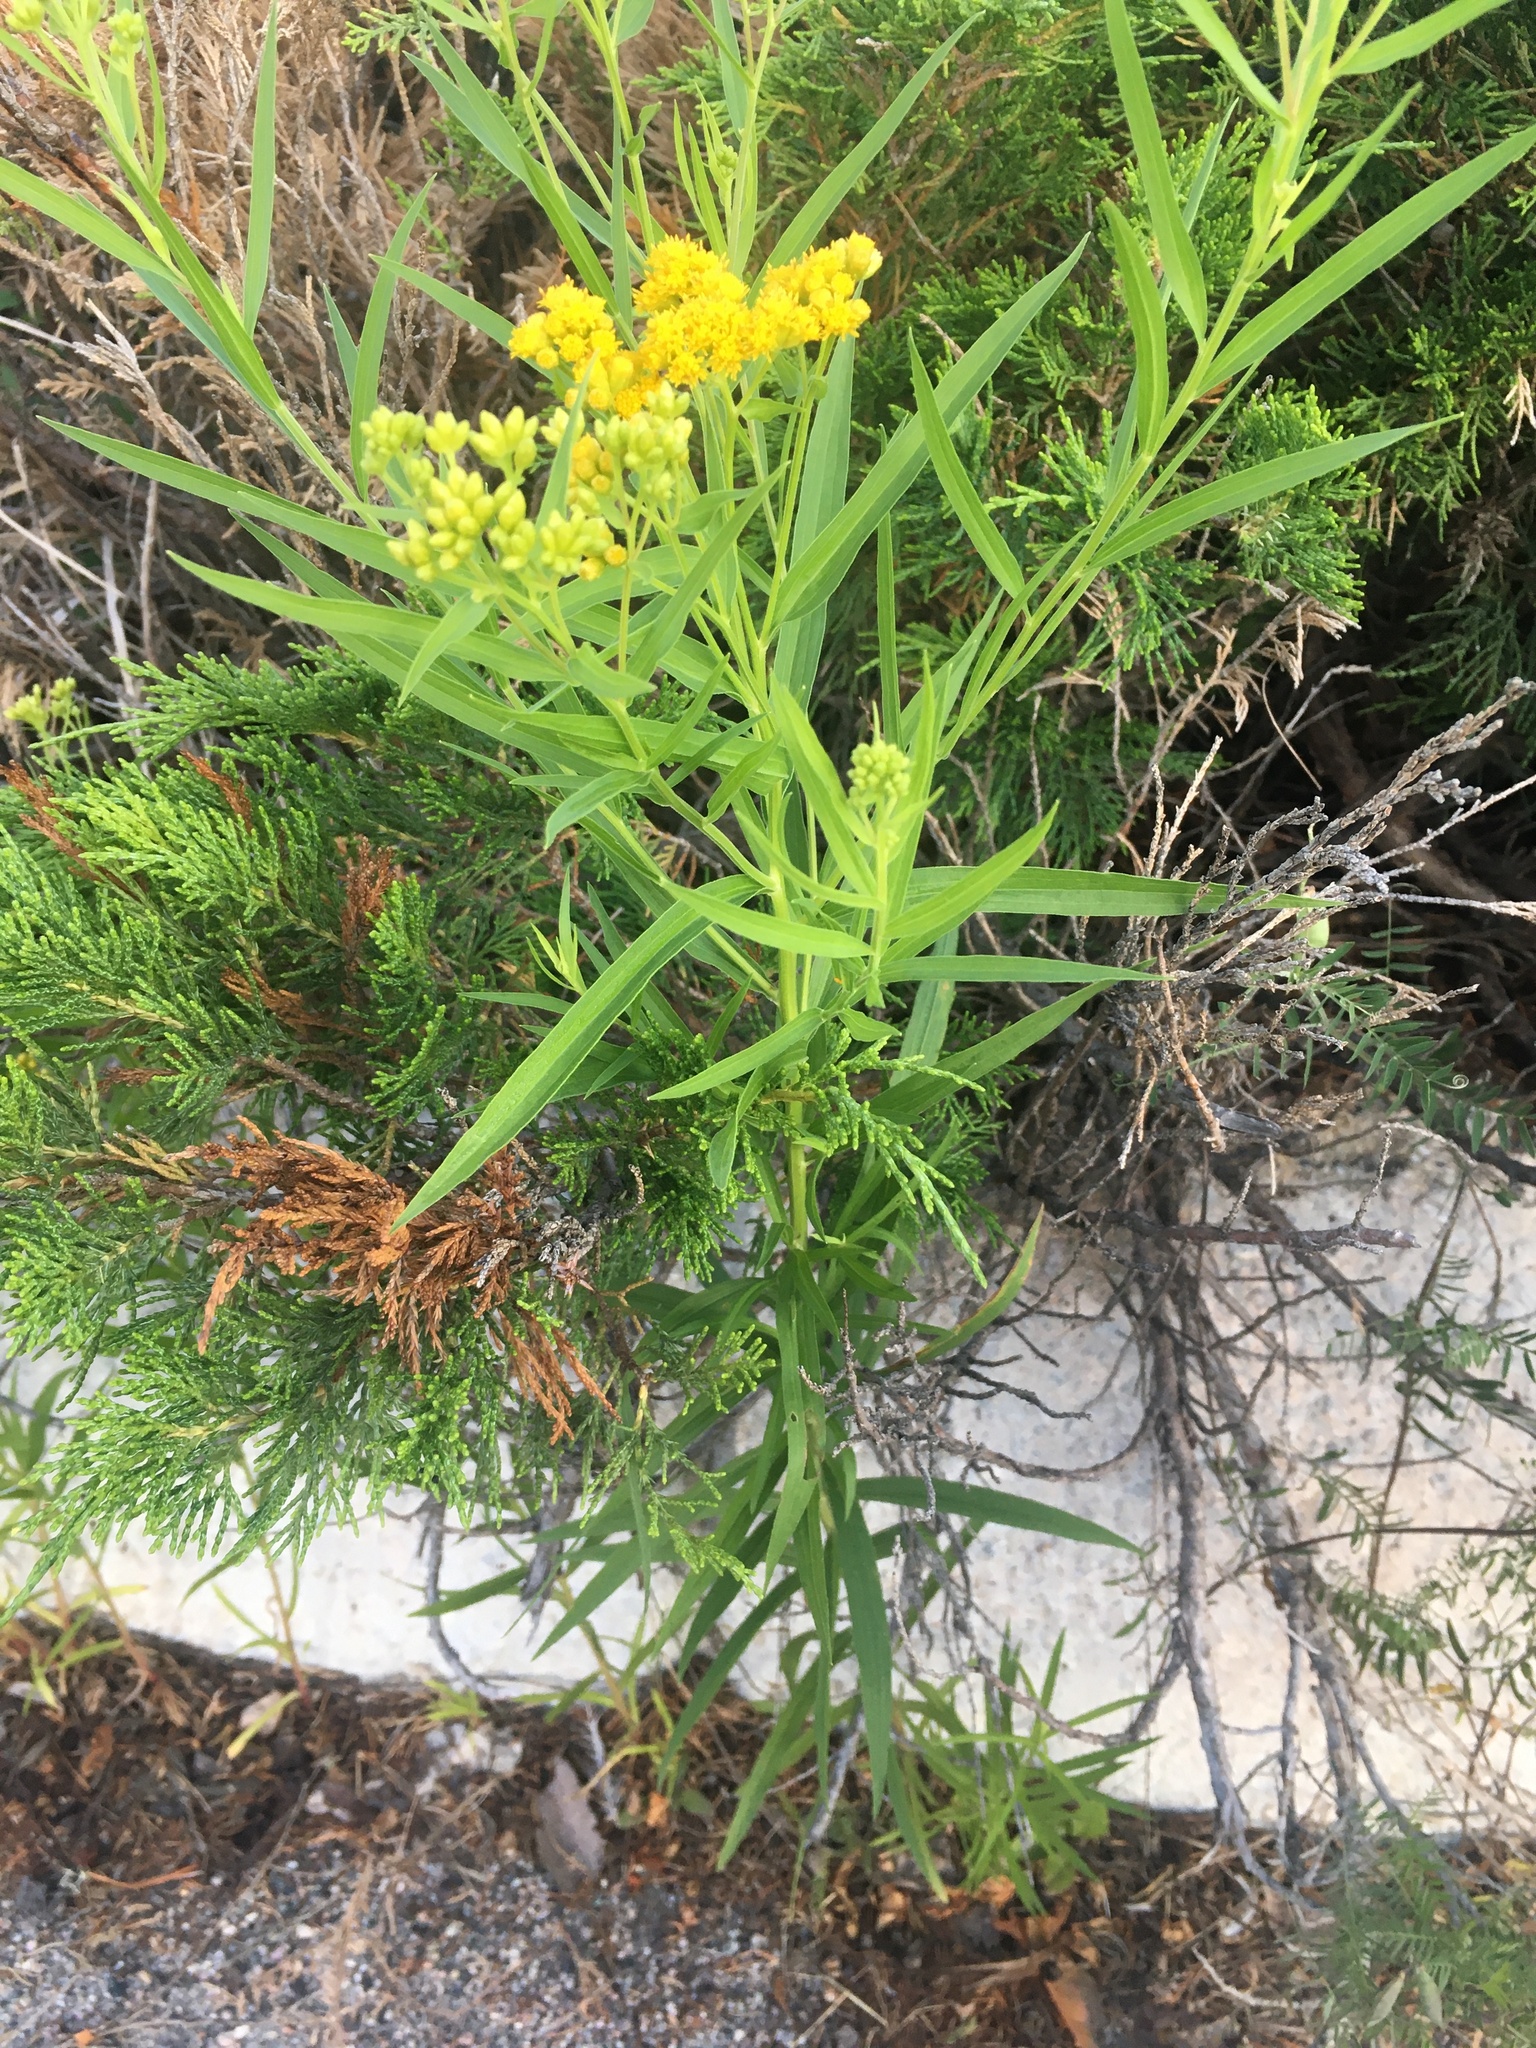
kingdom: Plantae
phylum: Tracheophyta
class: Magnoliopsida
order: Asterales
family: Asteraceae
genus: Euthamia
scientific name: Euthamia graminifolia
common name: Common goldentop
